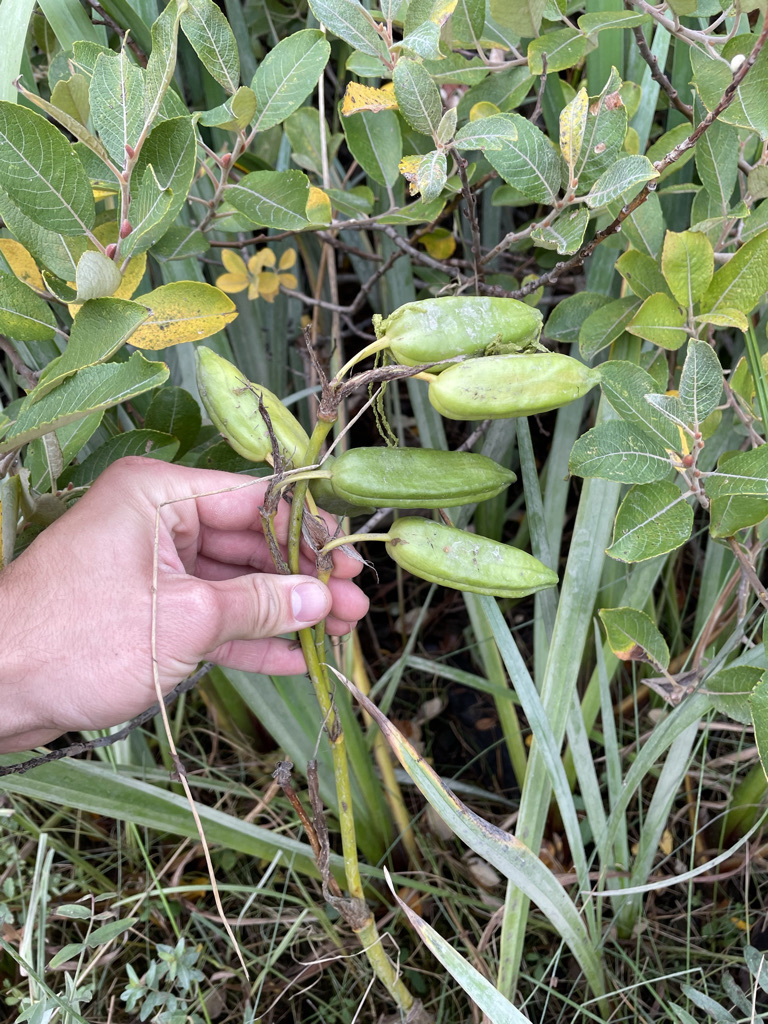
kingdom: Plantae
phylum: Tracheophyta
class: Liliopsida
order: Asparagales
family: Iridaceae
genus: Iris
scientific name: Iris pseudacorus
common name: Yellow flag
